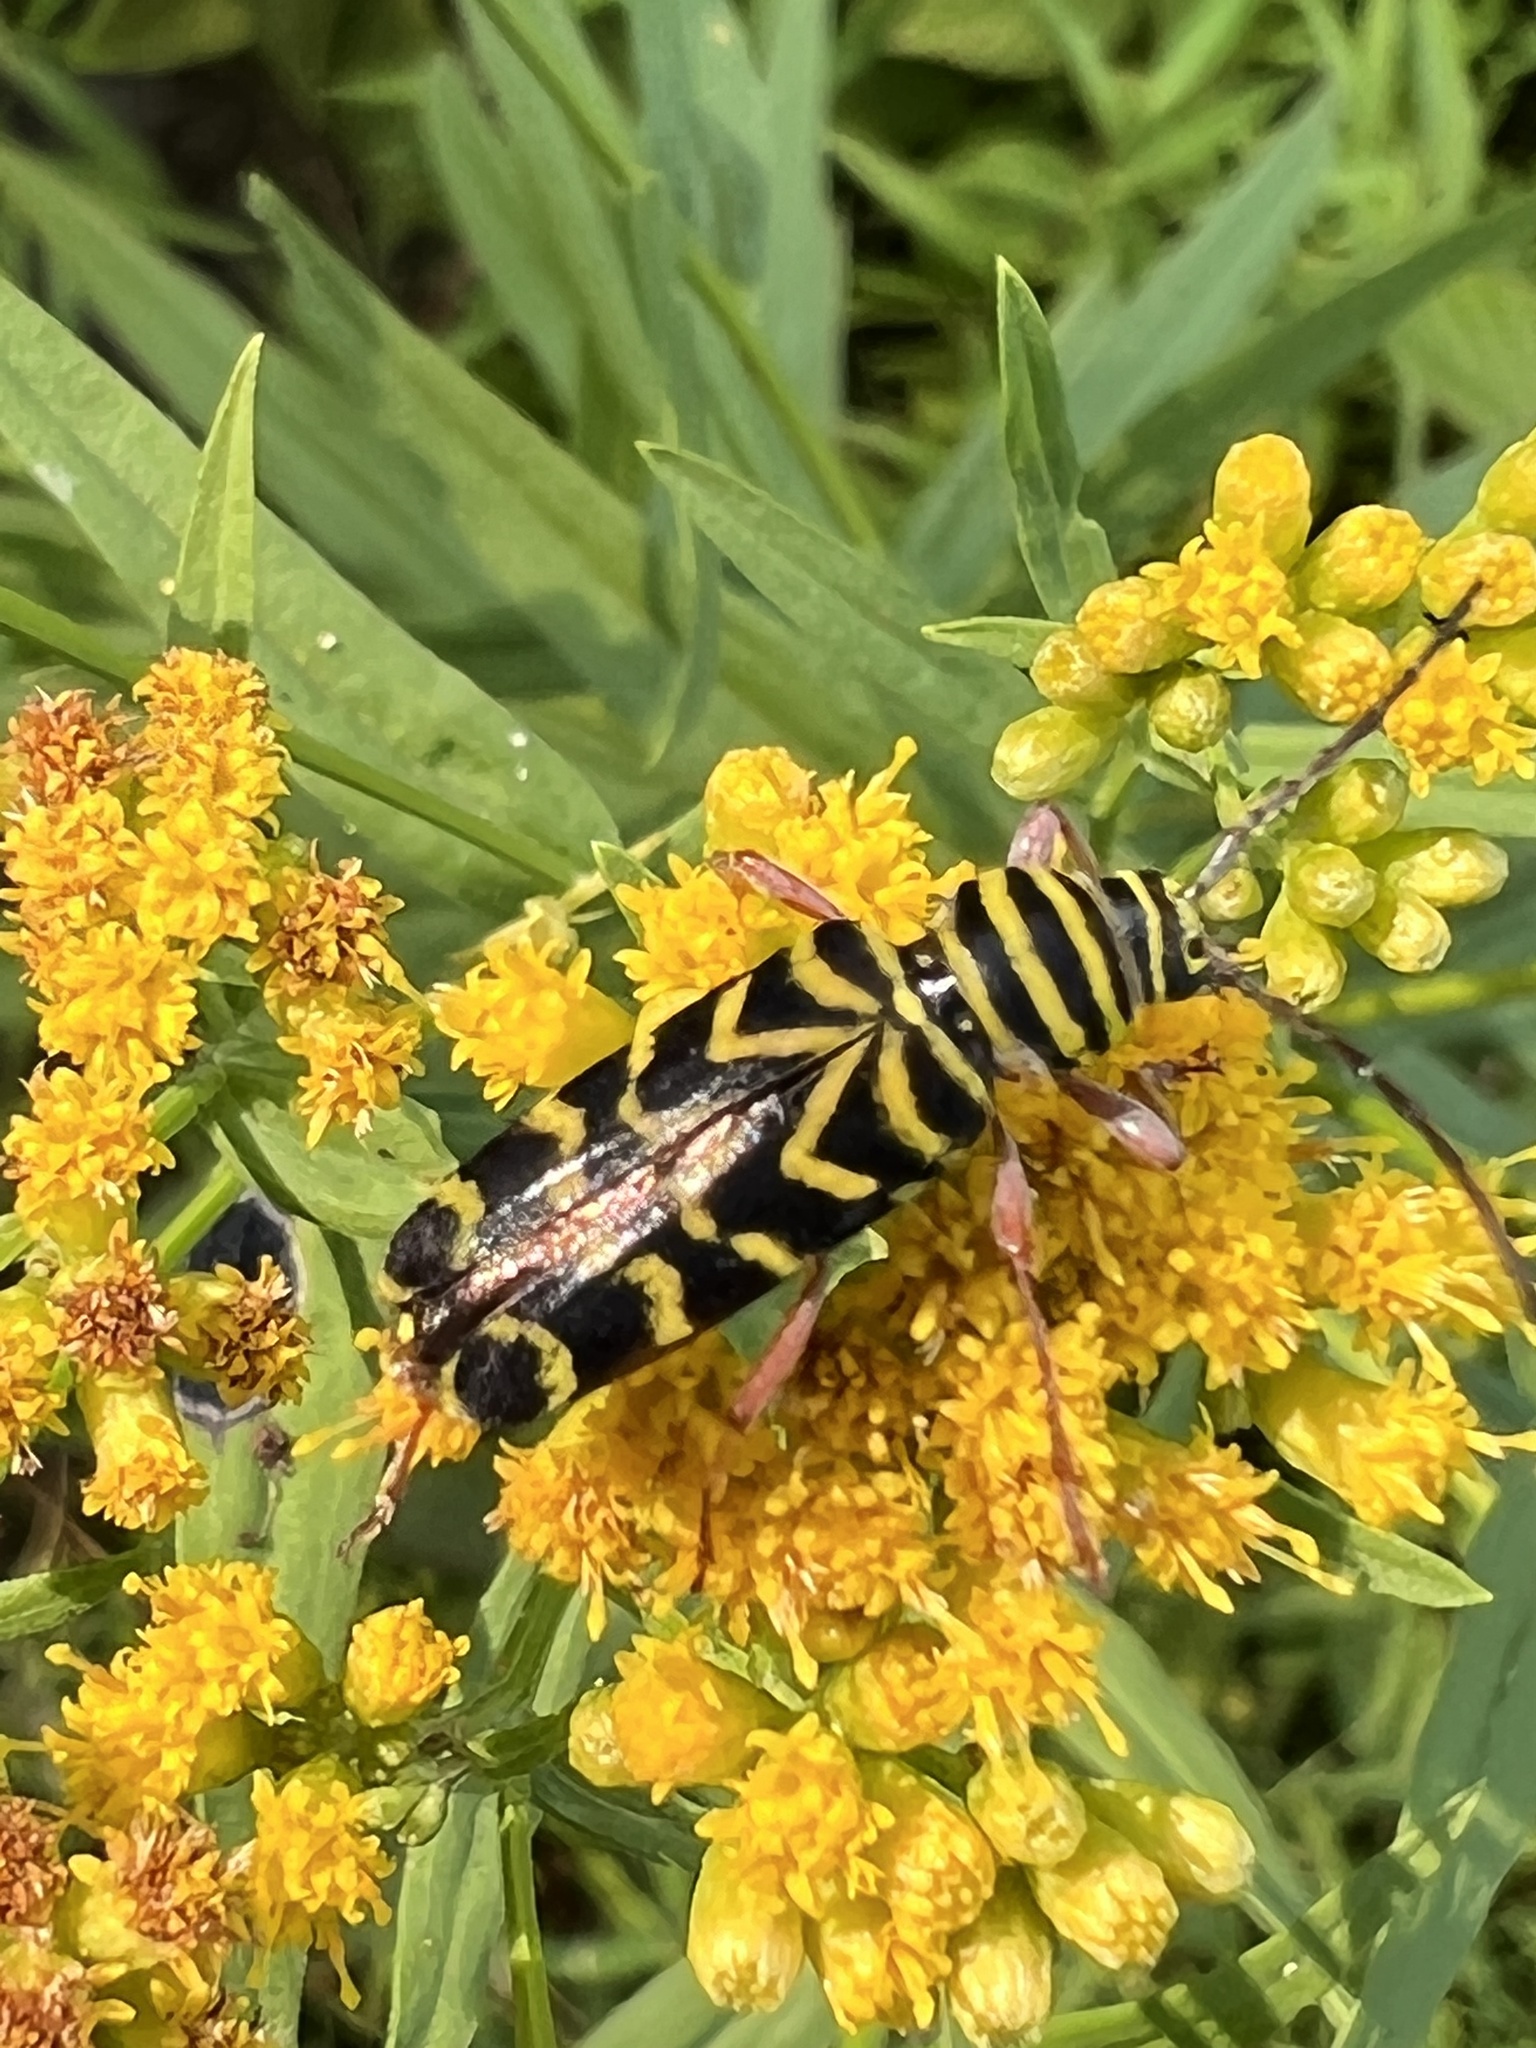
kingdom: Animalia
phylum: Arthropoda
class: Insecta
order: Coleoptera
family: Cerambycidae
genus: Megacyllene
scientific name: Megacyllene robiniae
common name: Locust borer
